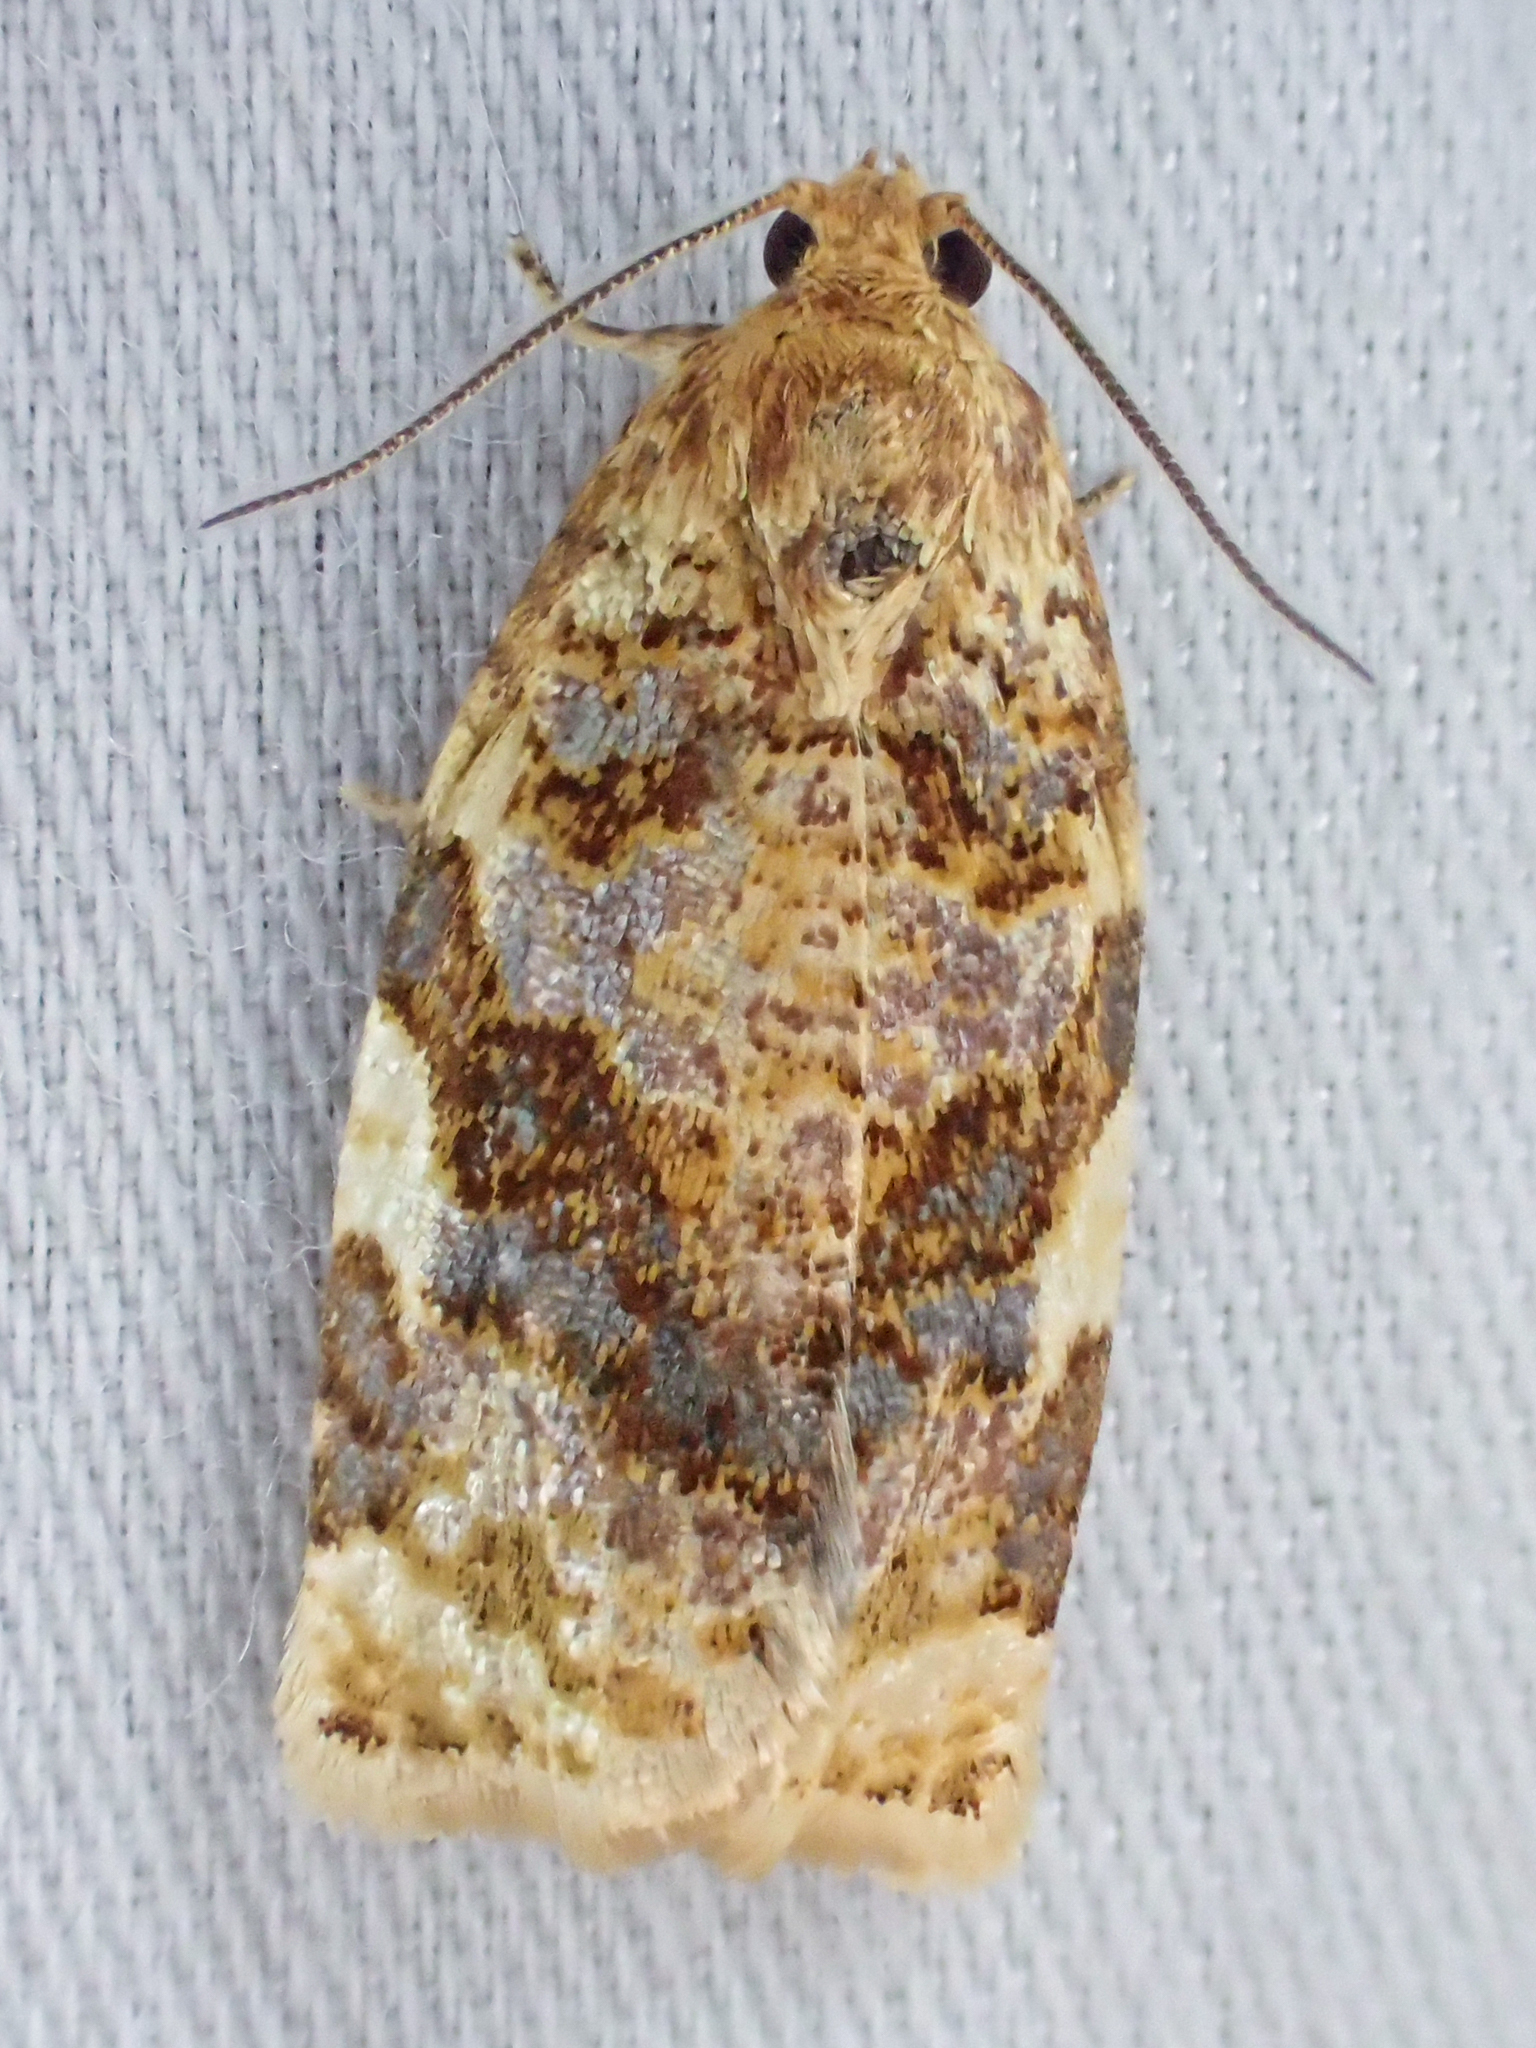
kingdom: Animalia
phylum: Arthropoda
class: Insecta
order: Lepidoptera
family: Tortricidae
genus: Archips
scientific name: Archips argyrospila
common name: Fruit-tree leafroller moth
